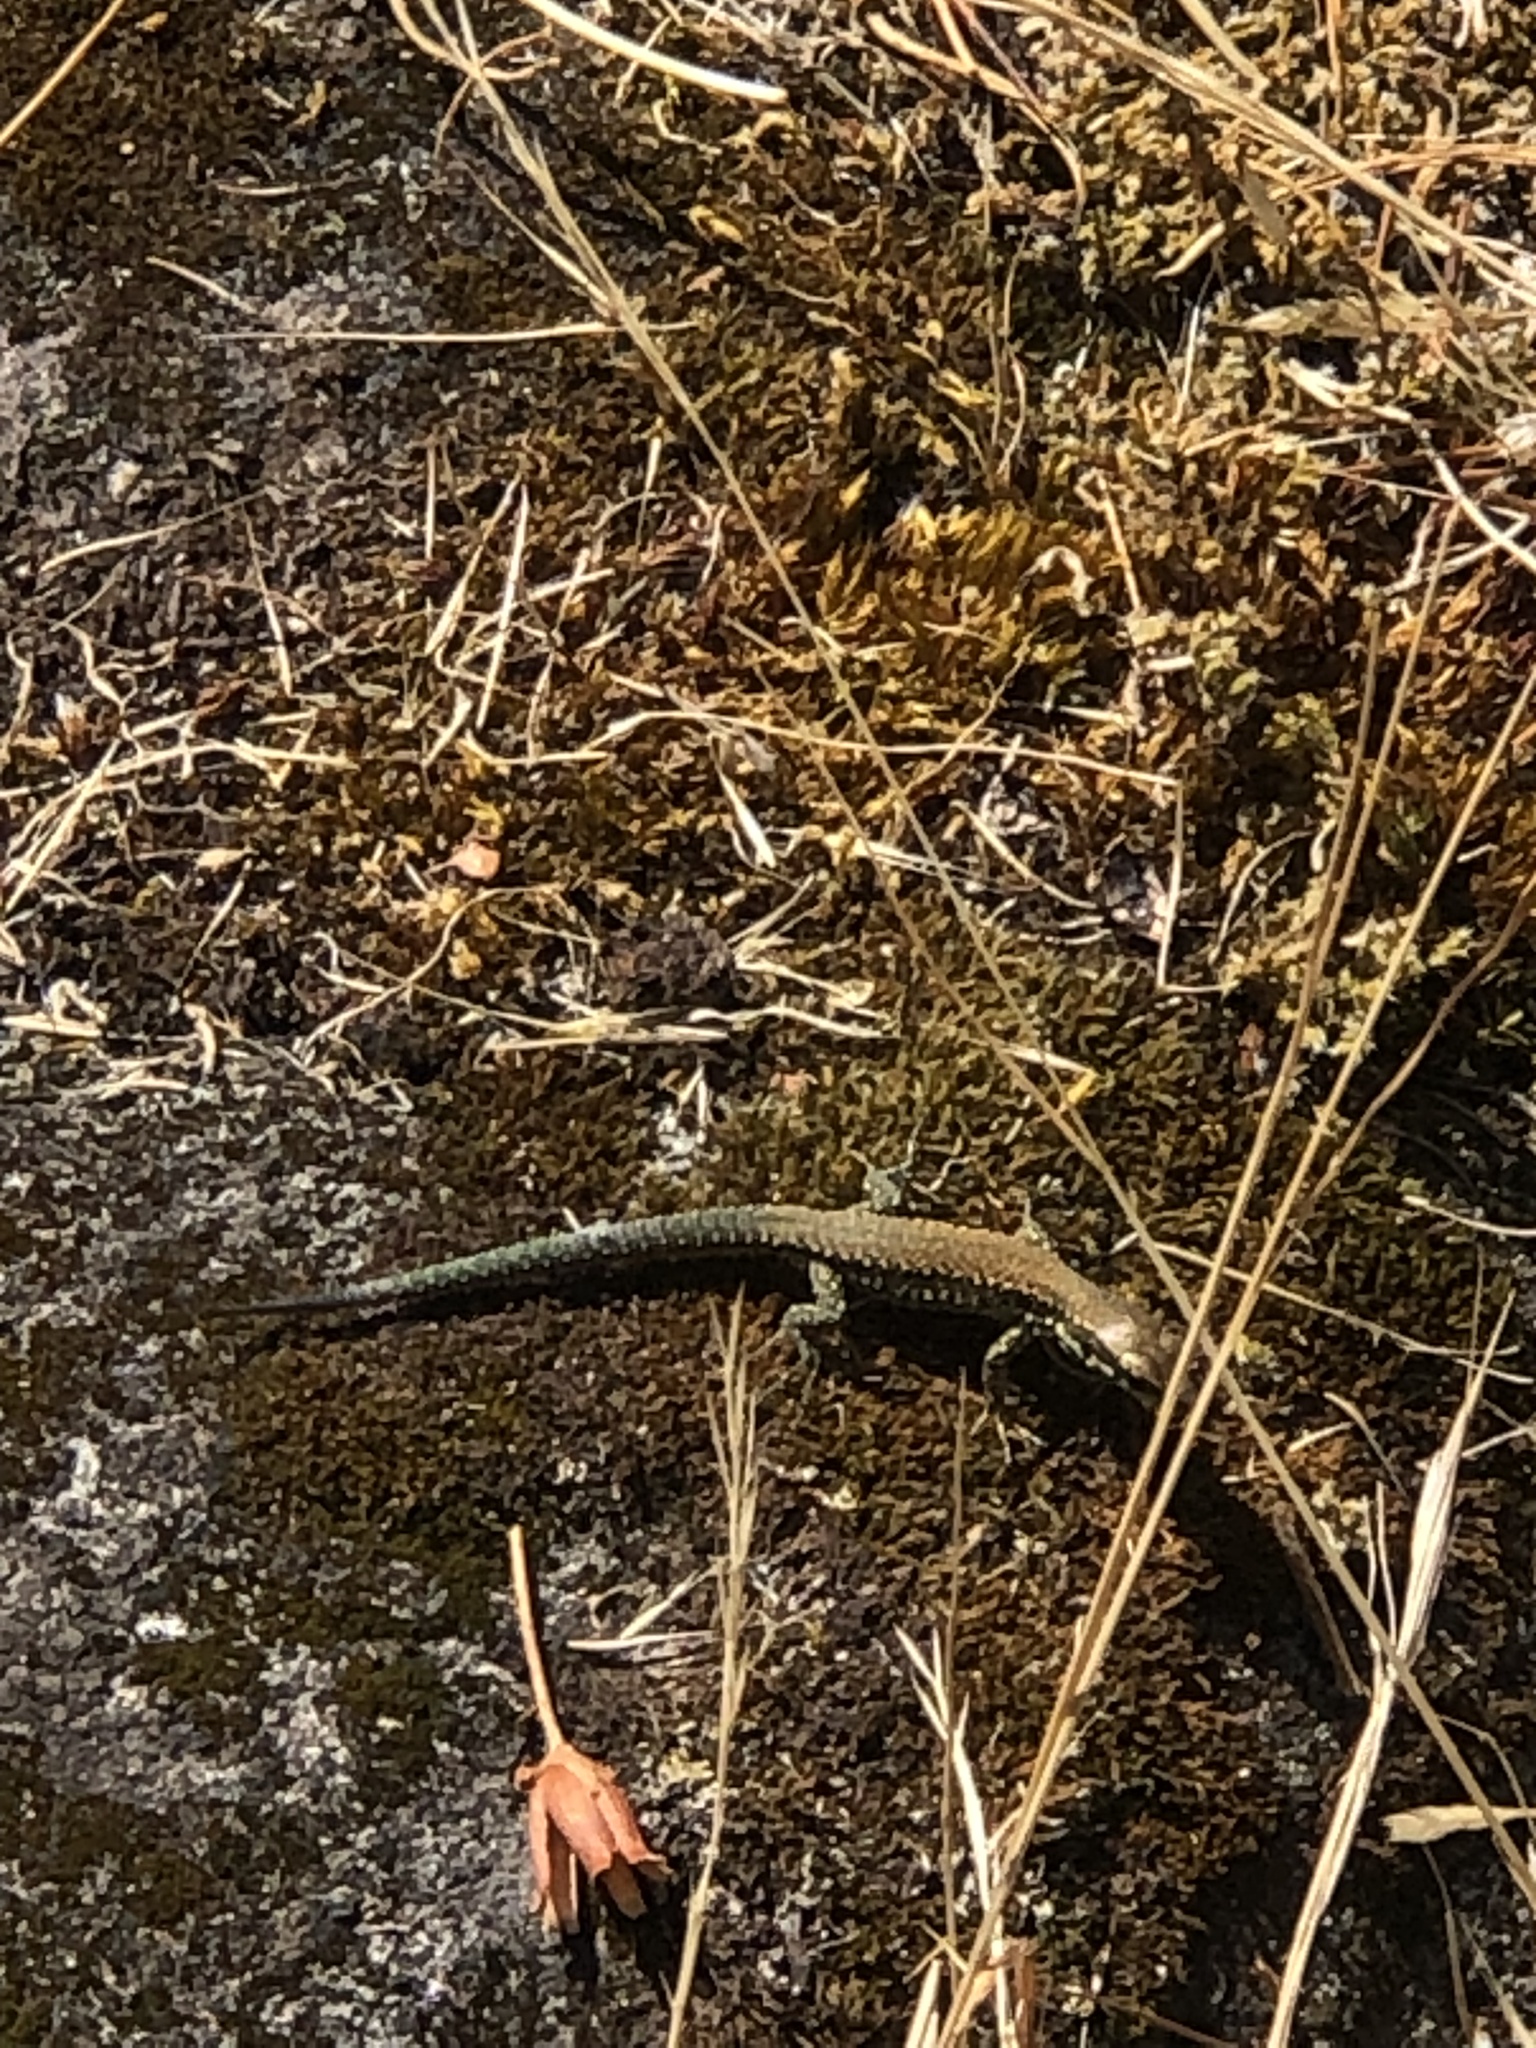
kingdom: Animalia
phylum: Chordata
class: Squamata
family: Lacertidae
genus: Podarcis
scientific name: Podarcis muralis
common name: Common wall lizard
